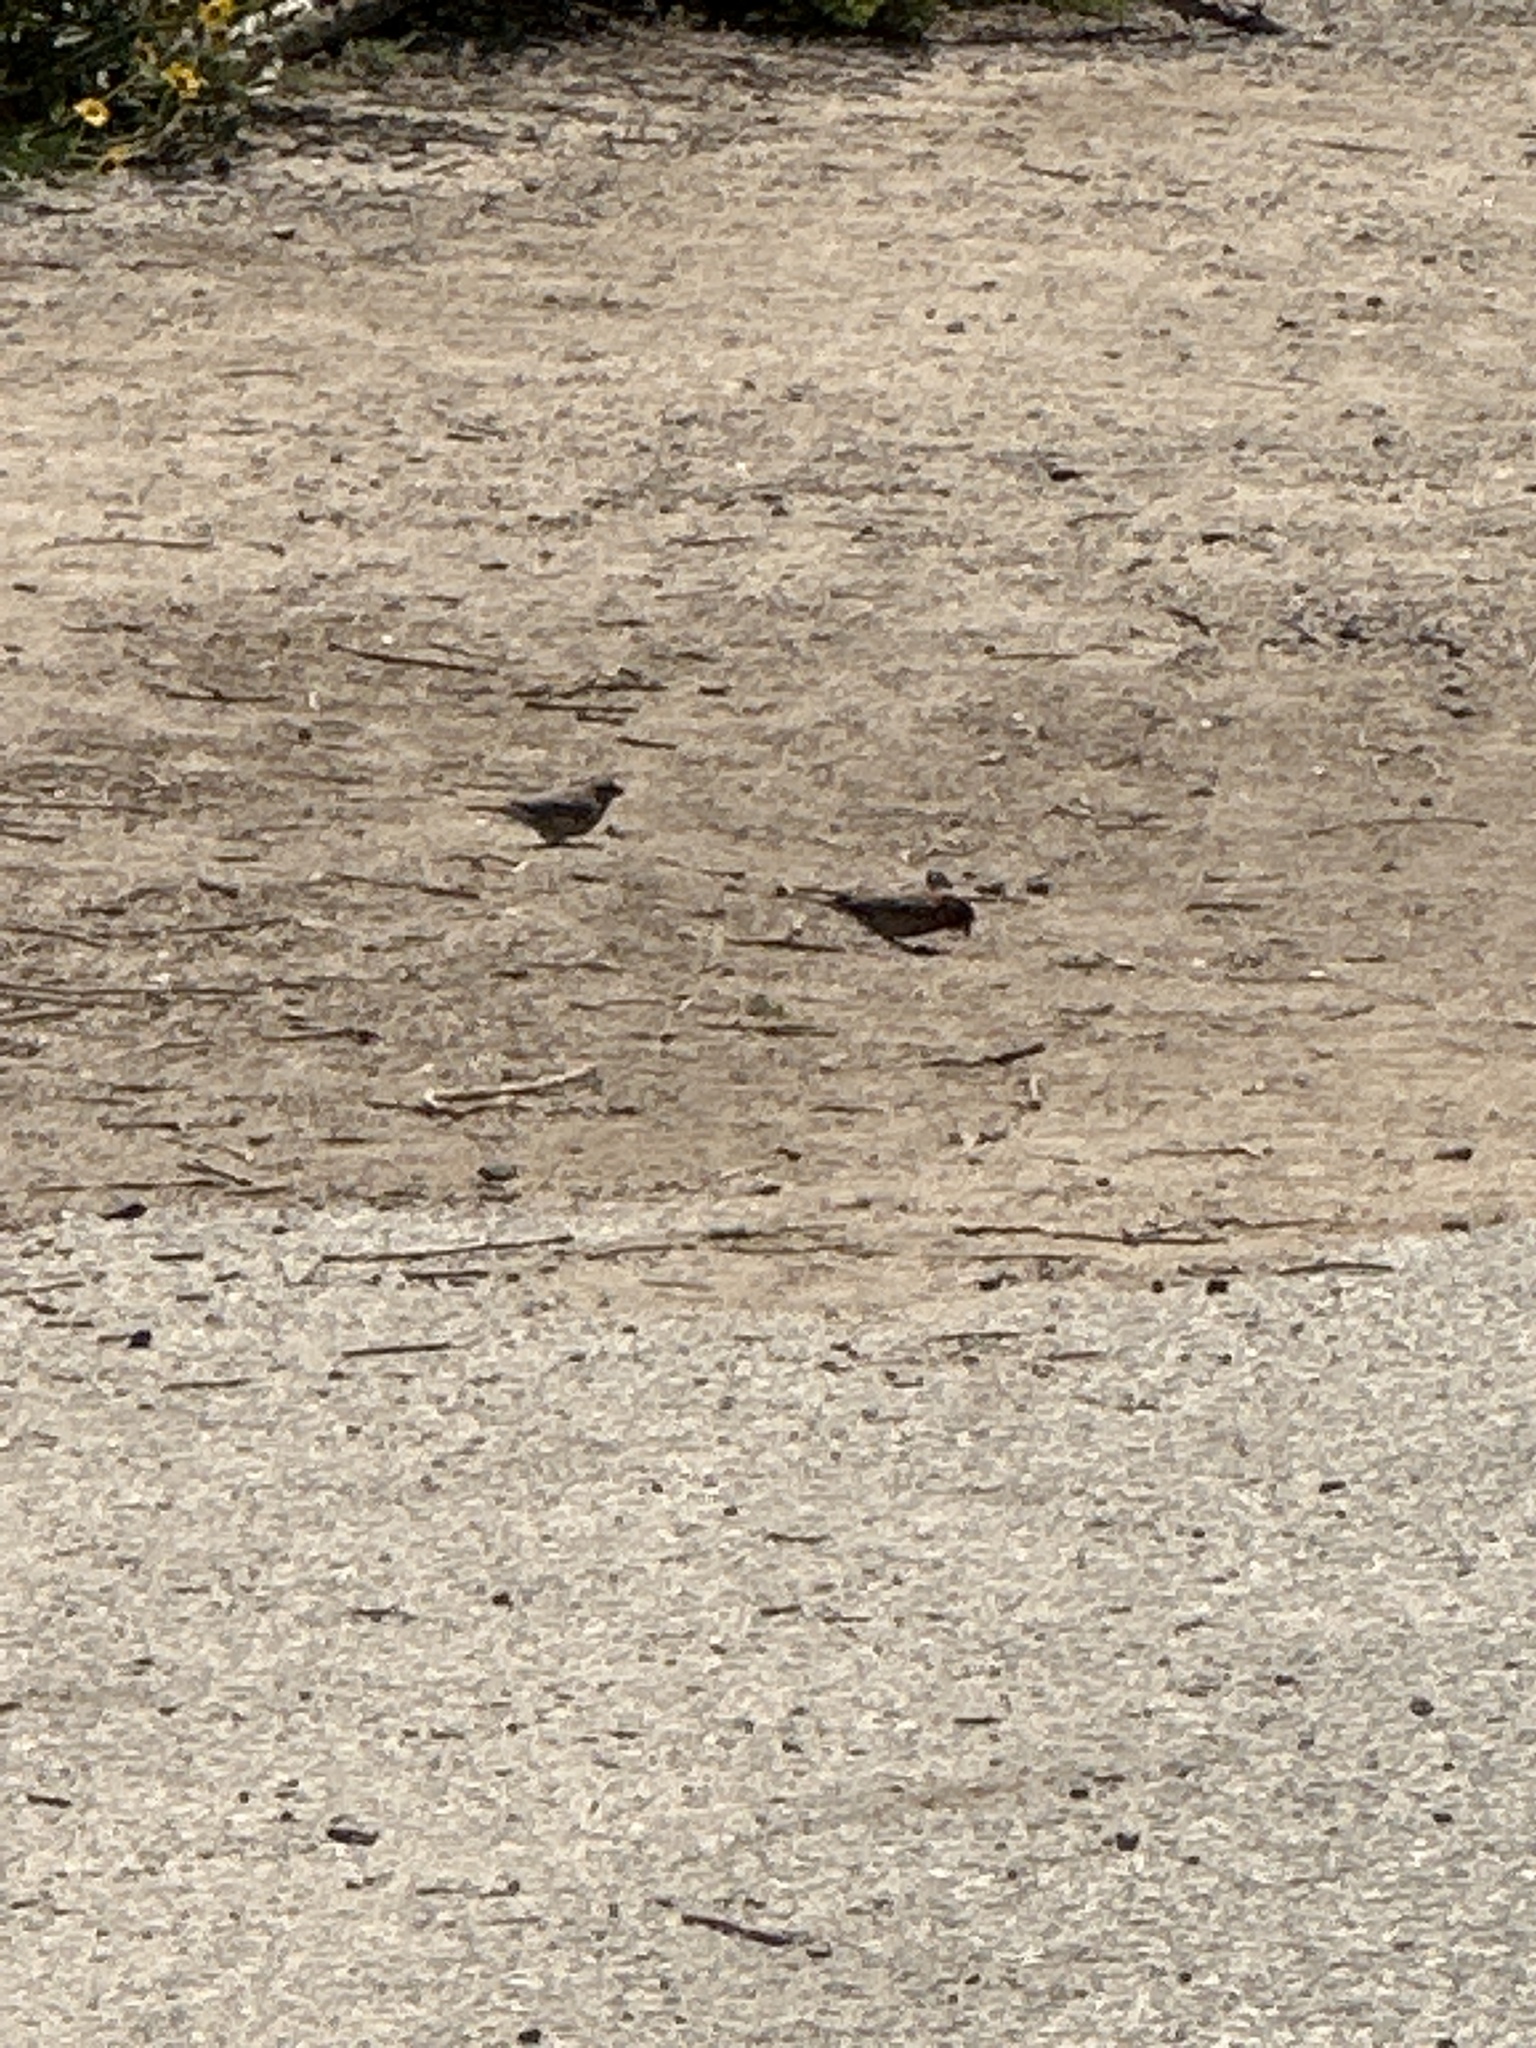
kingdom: Animalia
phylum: Chordata
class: Aves
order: Passeriformes
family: Fringillidae
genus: Haemorhous
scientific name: Haemorhous mexicanus
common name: House finch
